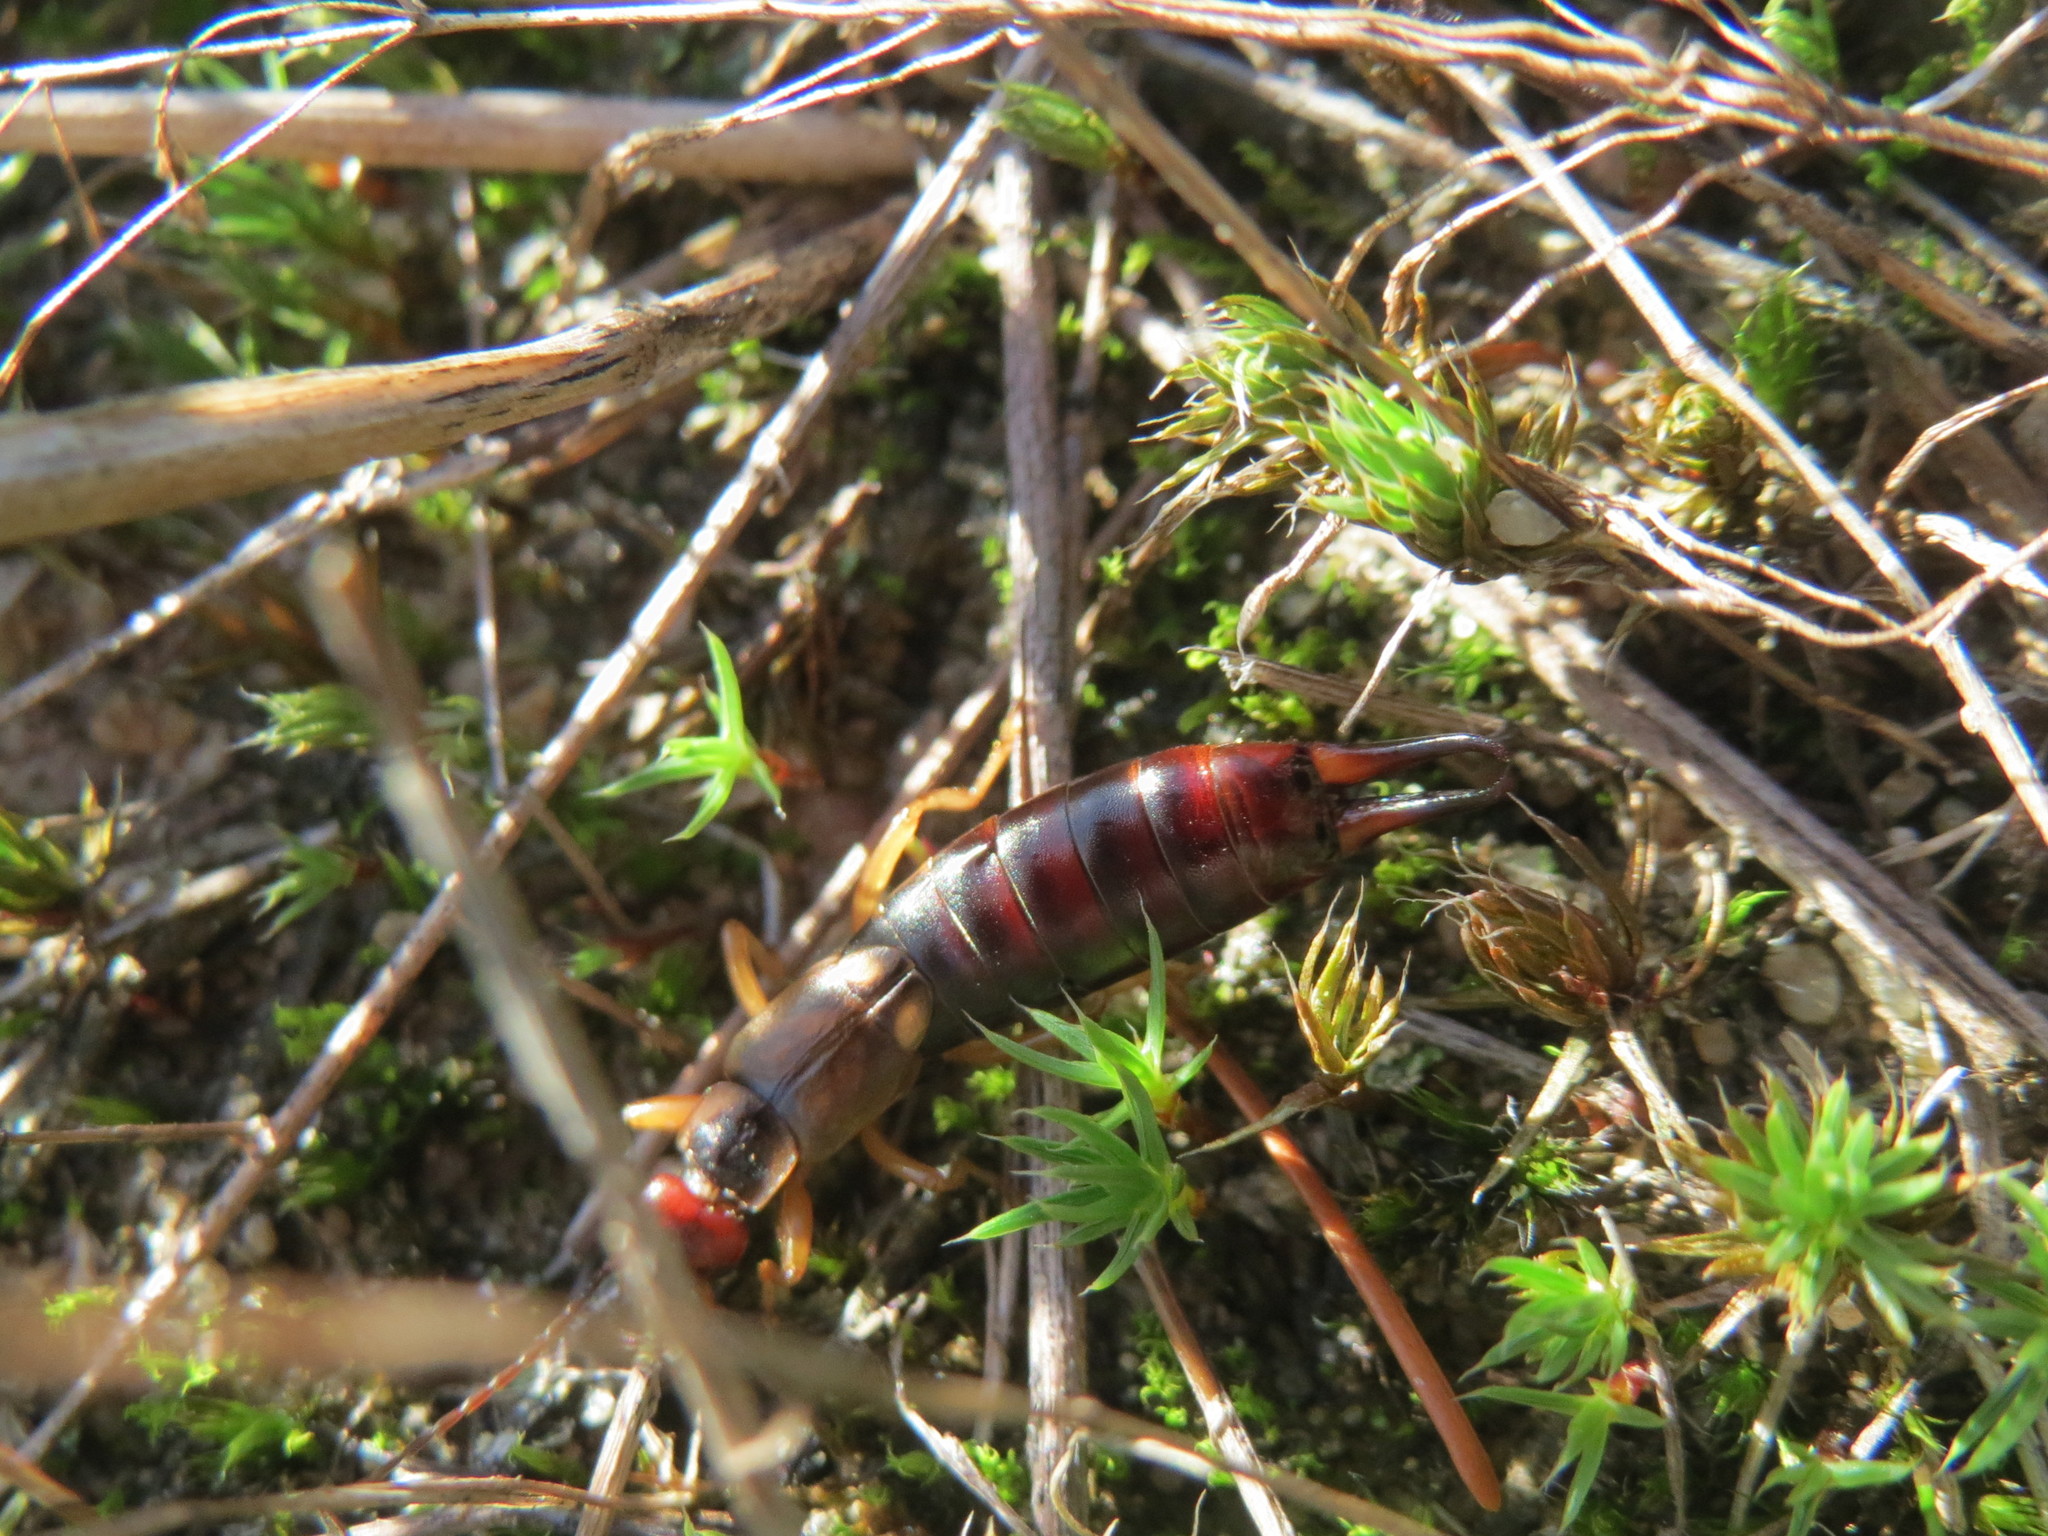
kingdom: Animalia
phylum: Arthropoda
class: Insecta
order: Dermaptera
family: Forficulidae
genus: Forficula
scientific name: Forficula
